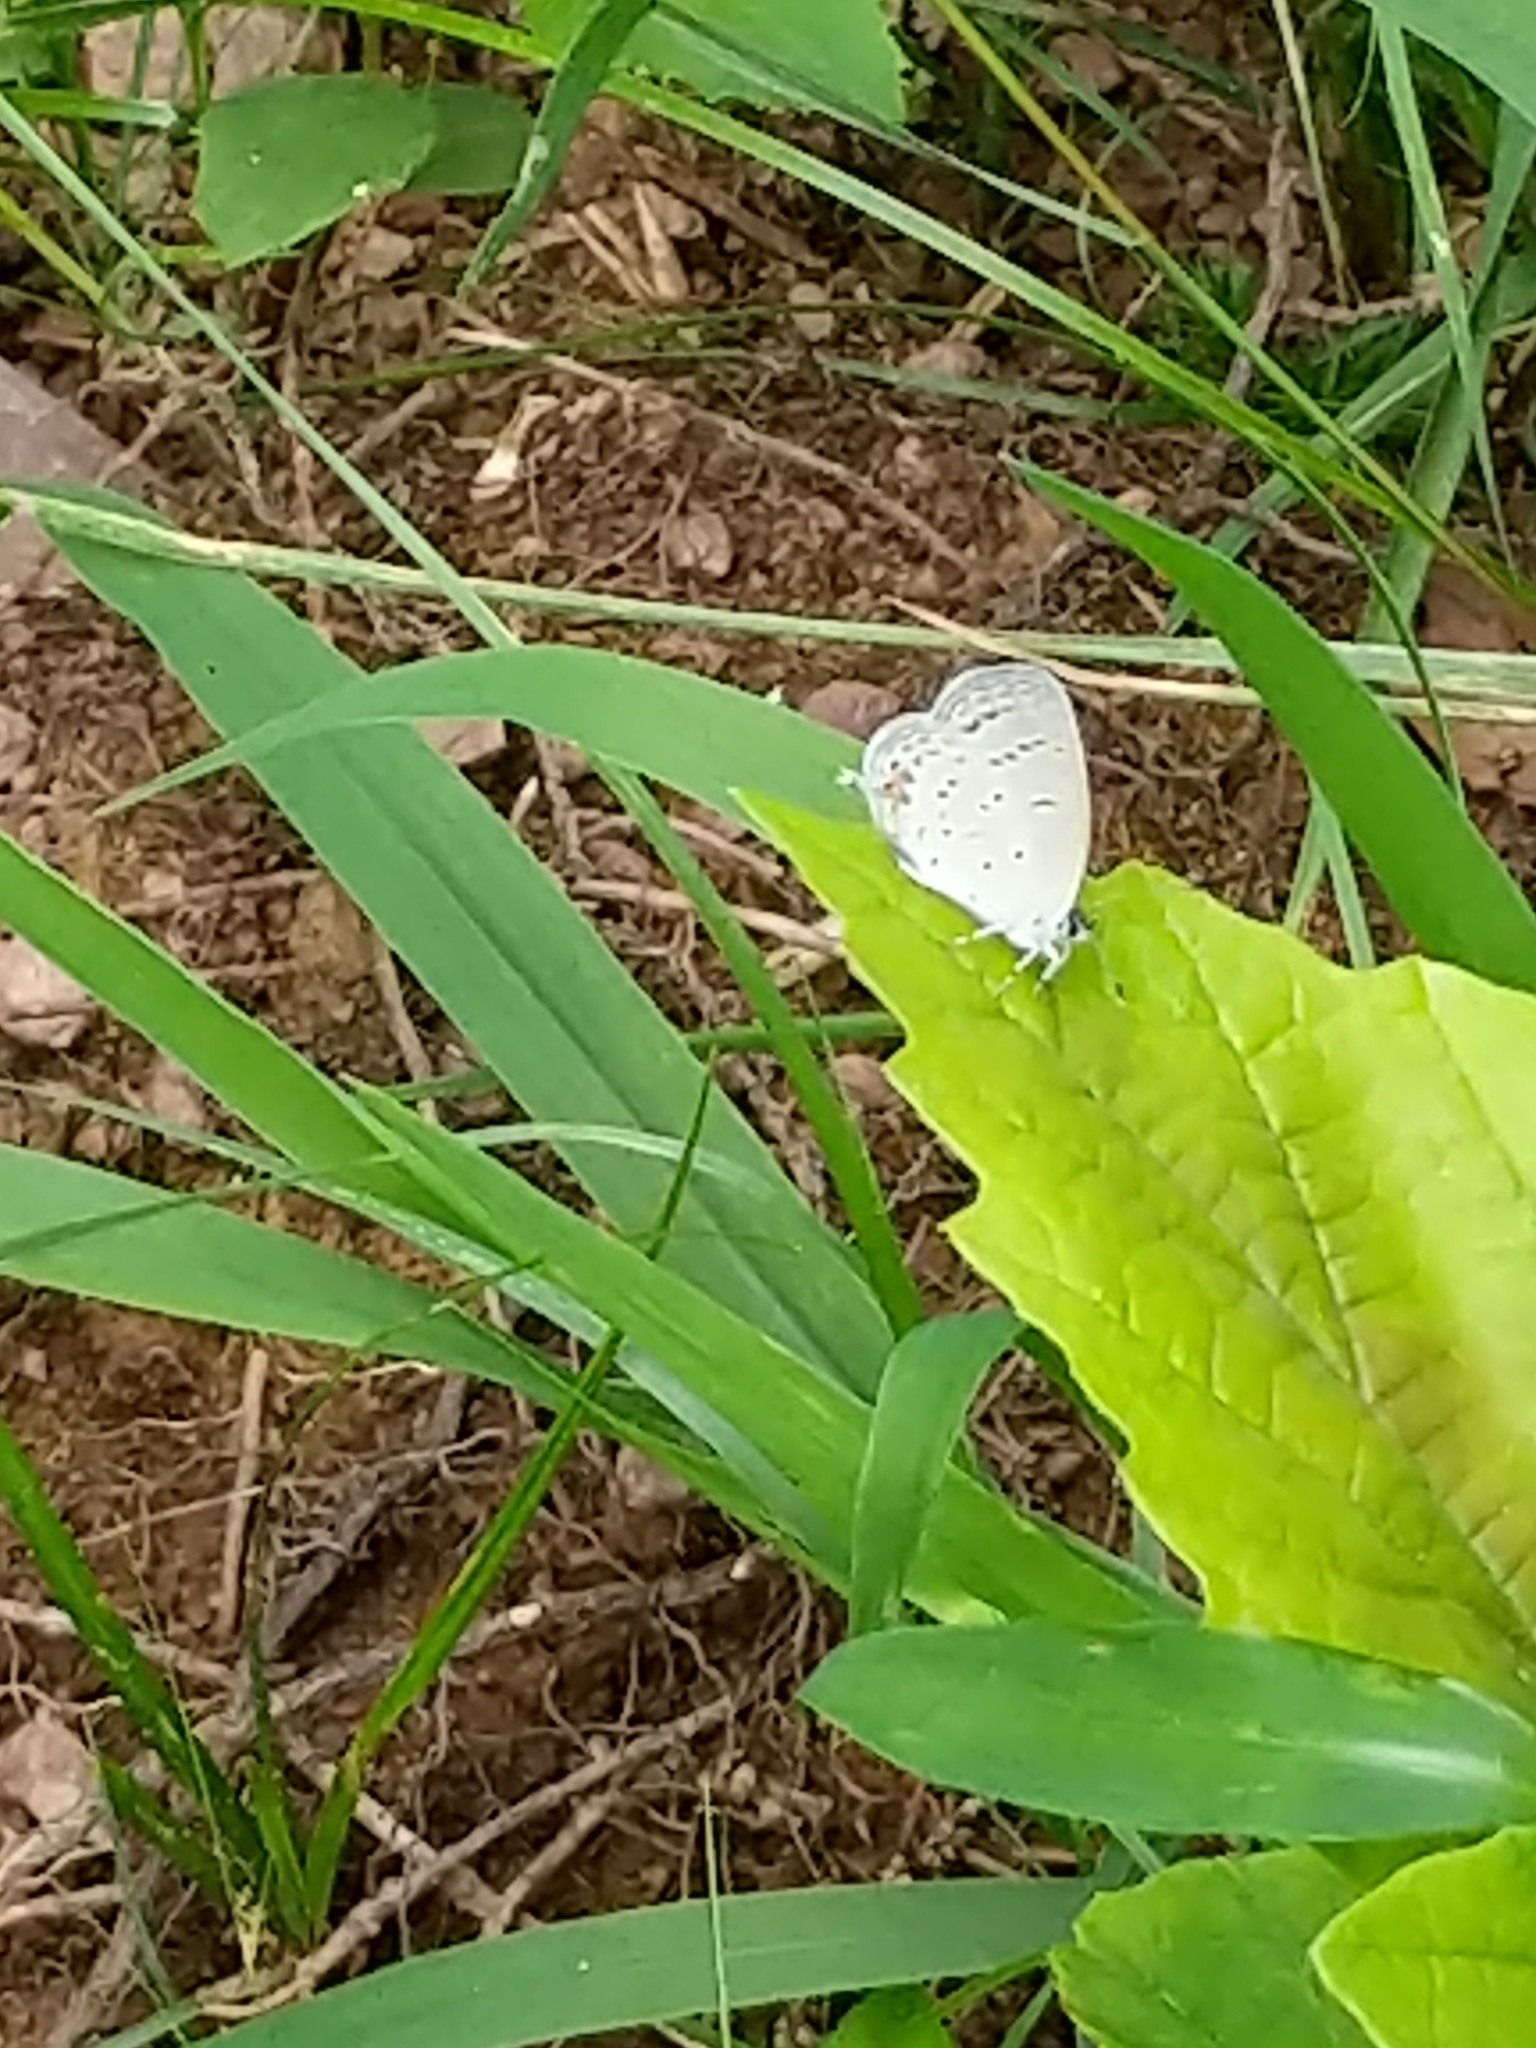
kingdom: Animalia
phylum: Arthropoda
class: Insecta
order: Lepidoptera
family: Lycaenidae
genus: Elkalyce
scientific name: Elkalyce comyntas
